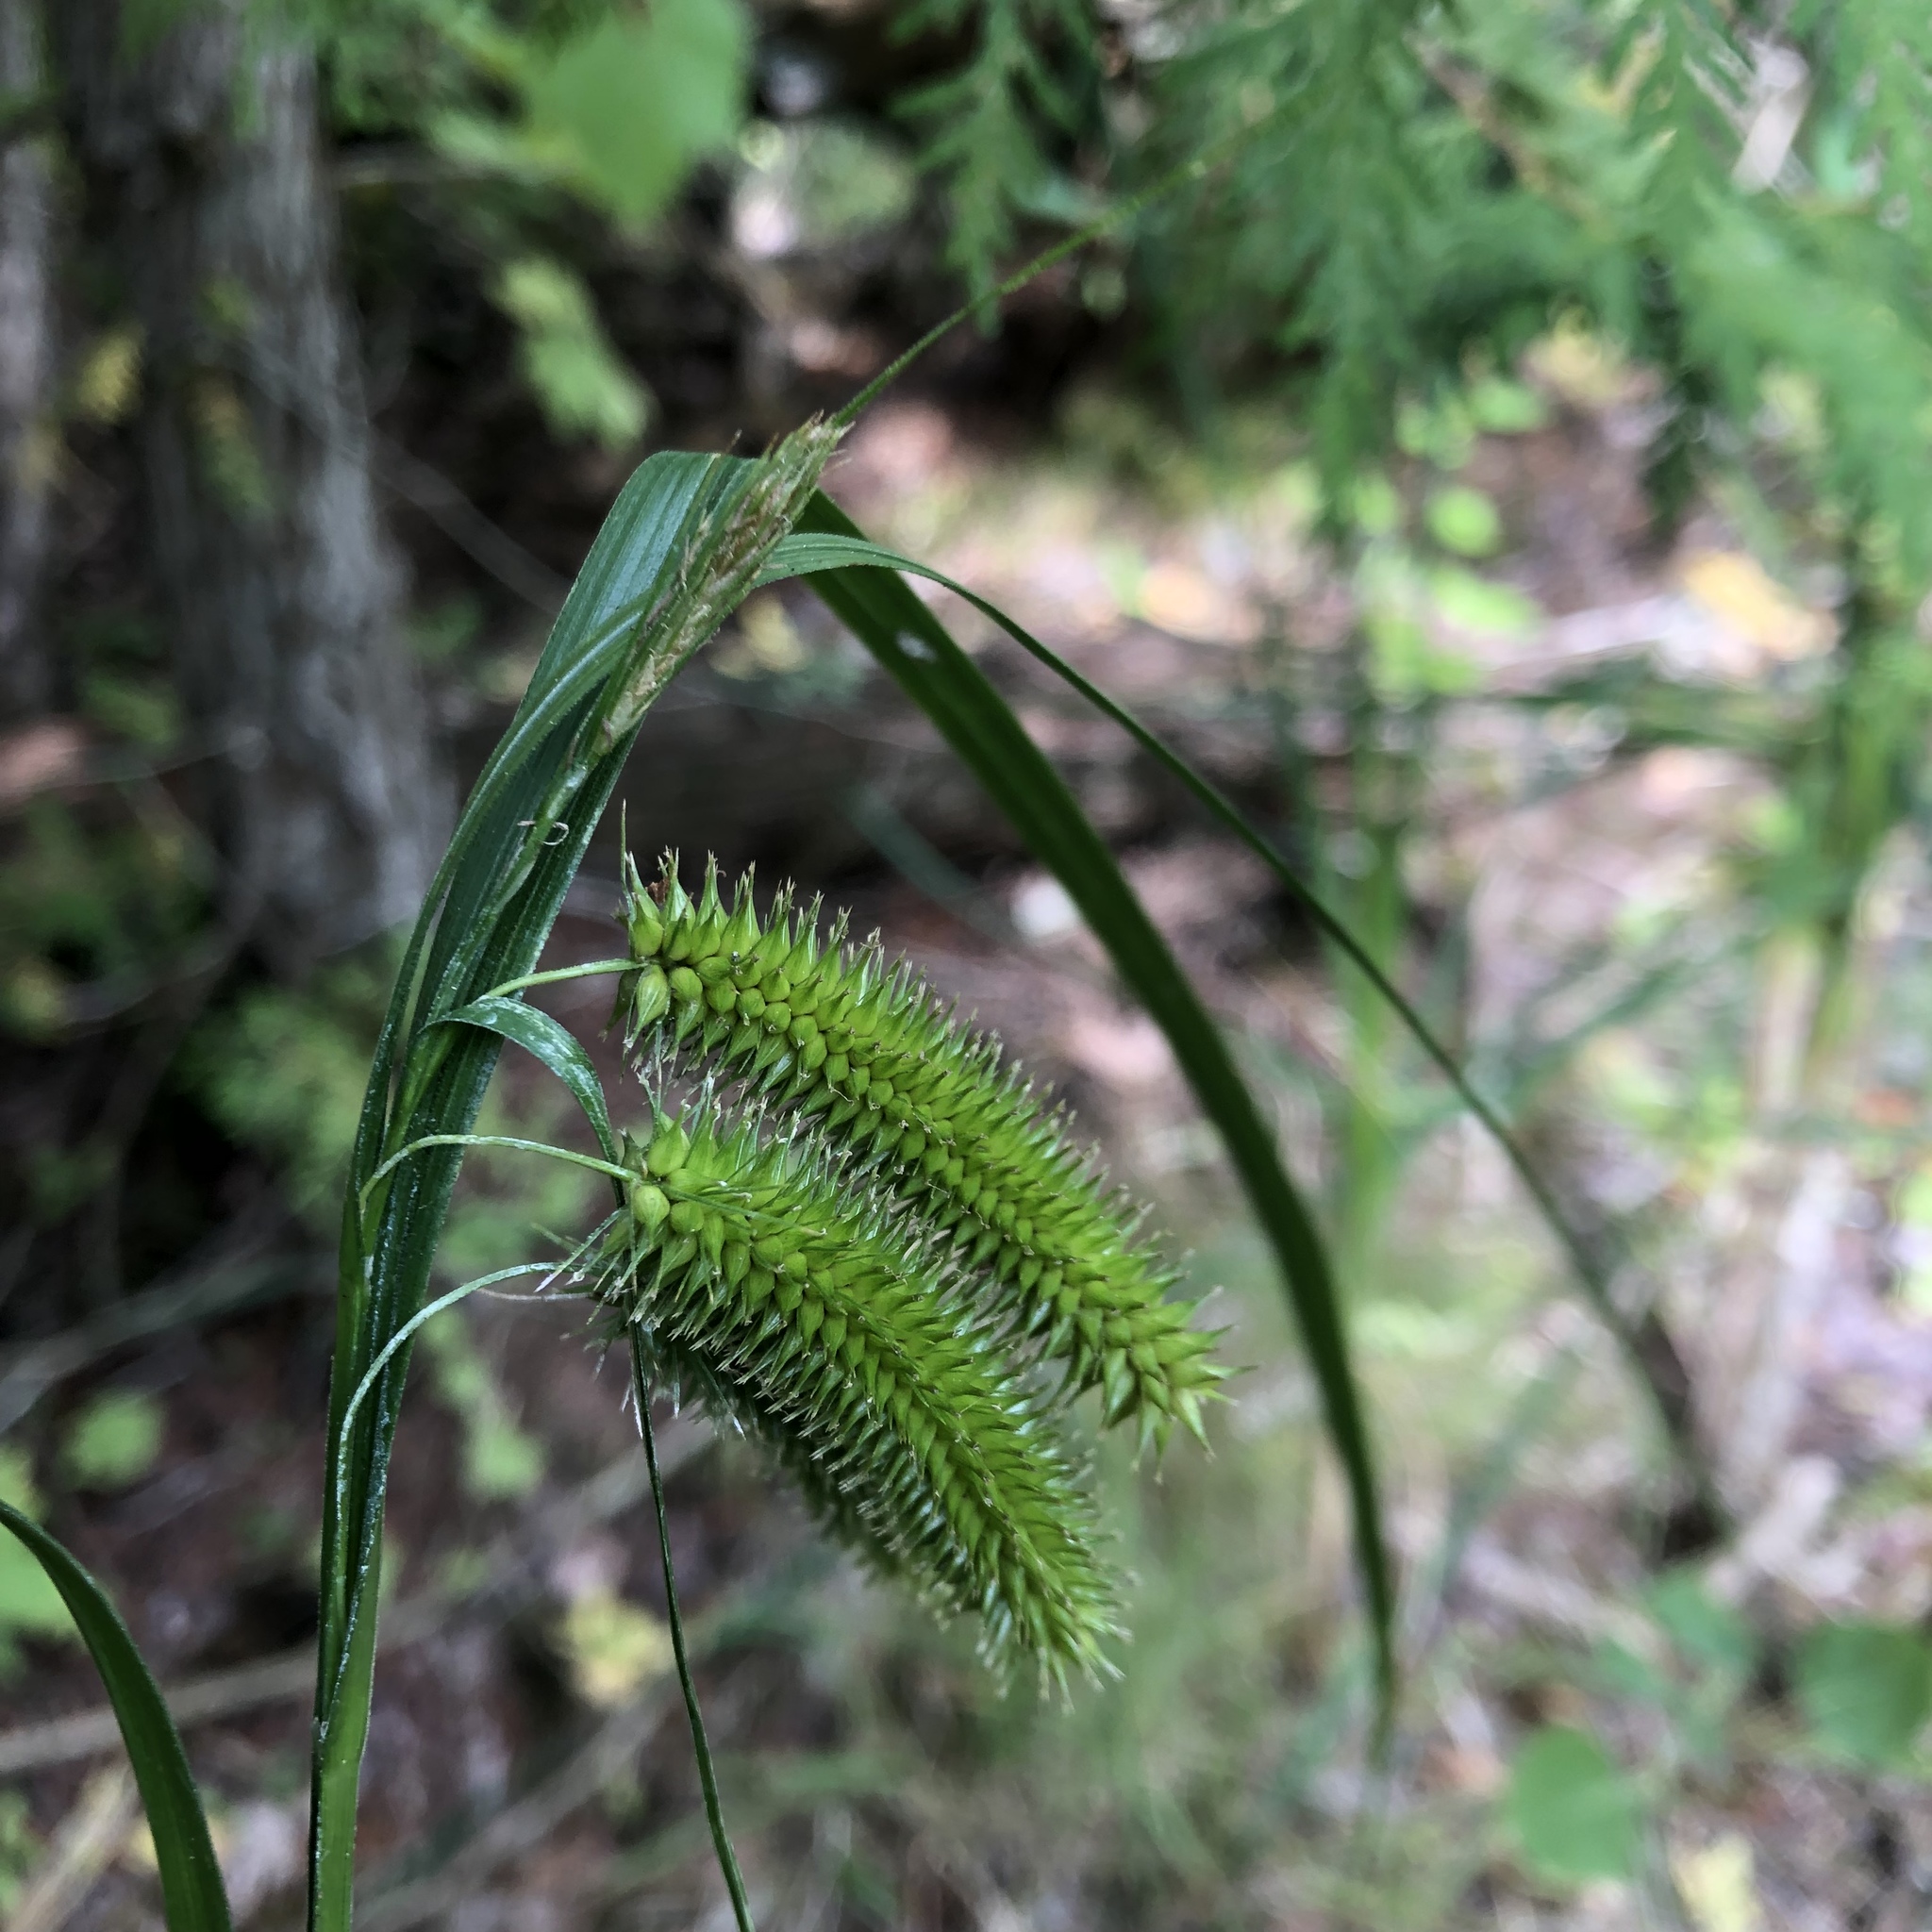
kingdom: Plantae
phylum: Tracheophyta
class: Liliopsida
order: Poales
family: Cyperaceae
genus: Carex
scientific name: Carex pseudocyperus
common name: Cyperus sedge
